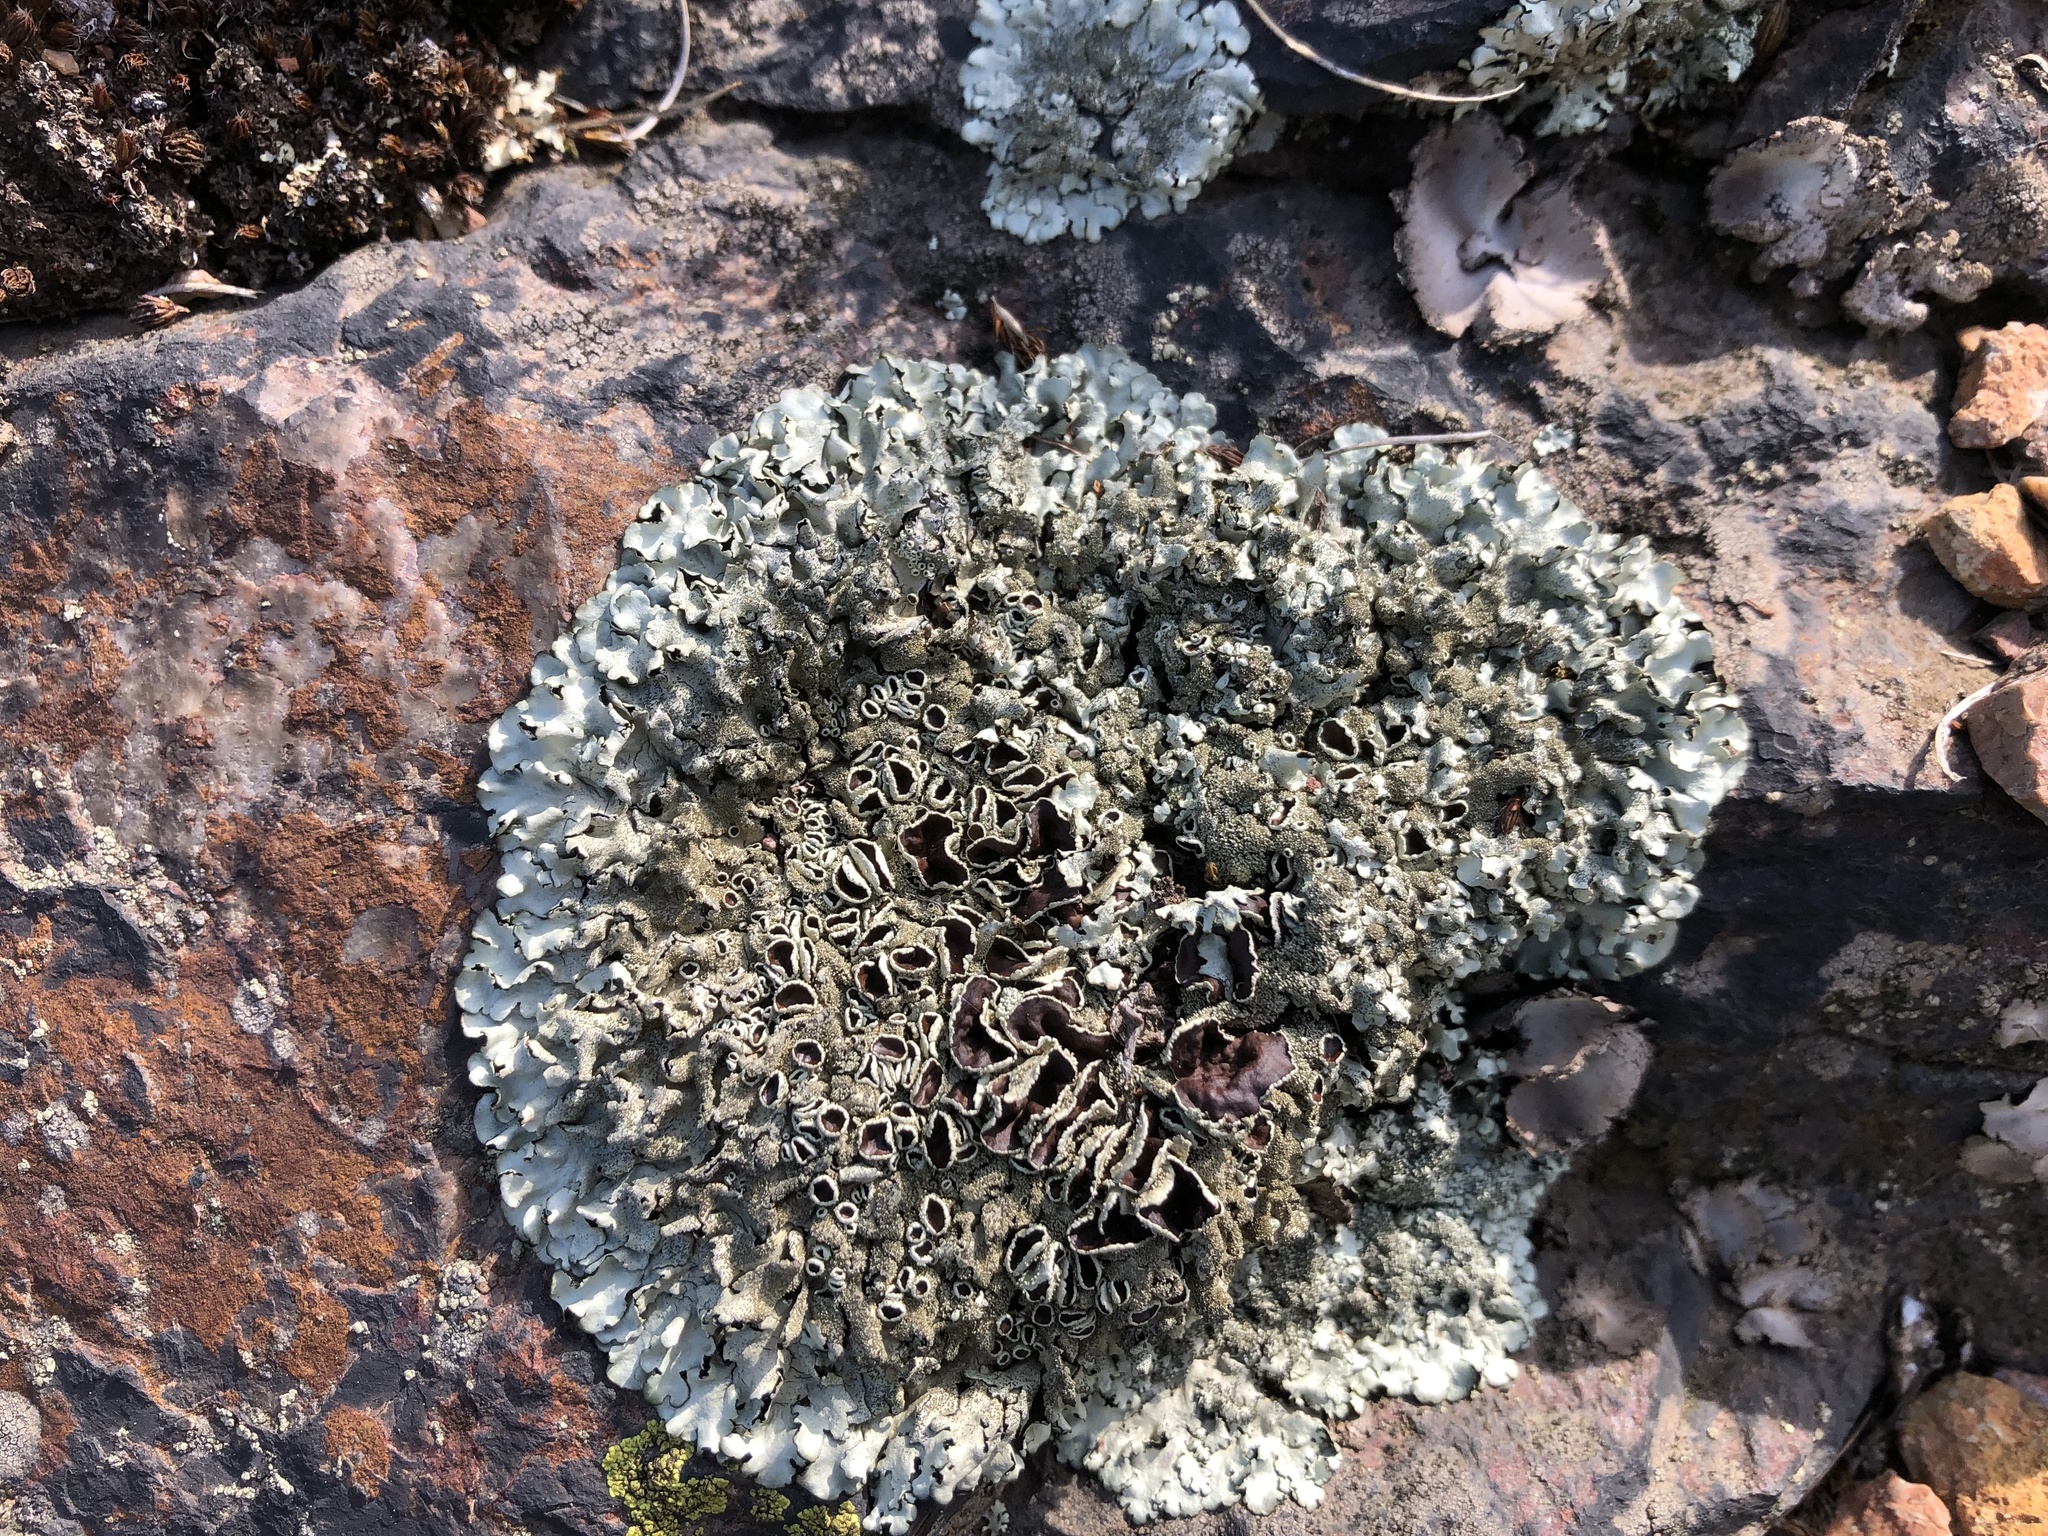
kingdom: Fungi
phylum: Ascomycota
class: Lecanoromycetes
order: Lecanorales
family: Parmeliaceae
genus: Xanthoparmelia
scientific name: Xanthoparmelia conspersa
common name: Peppered rock shield
